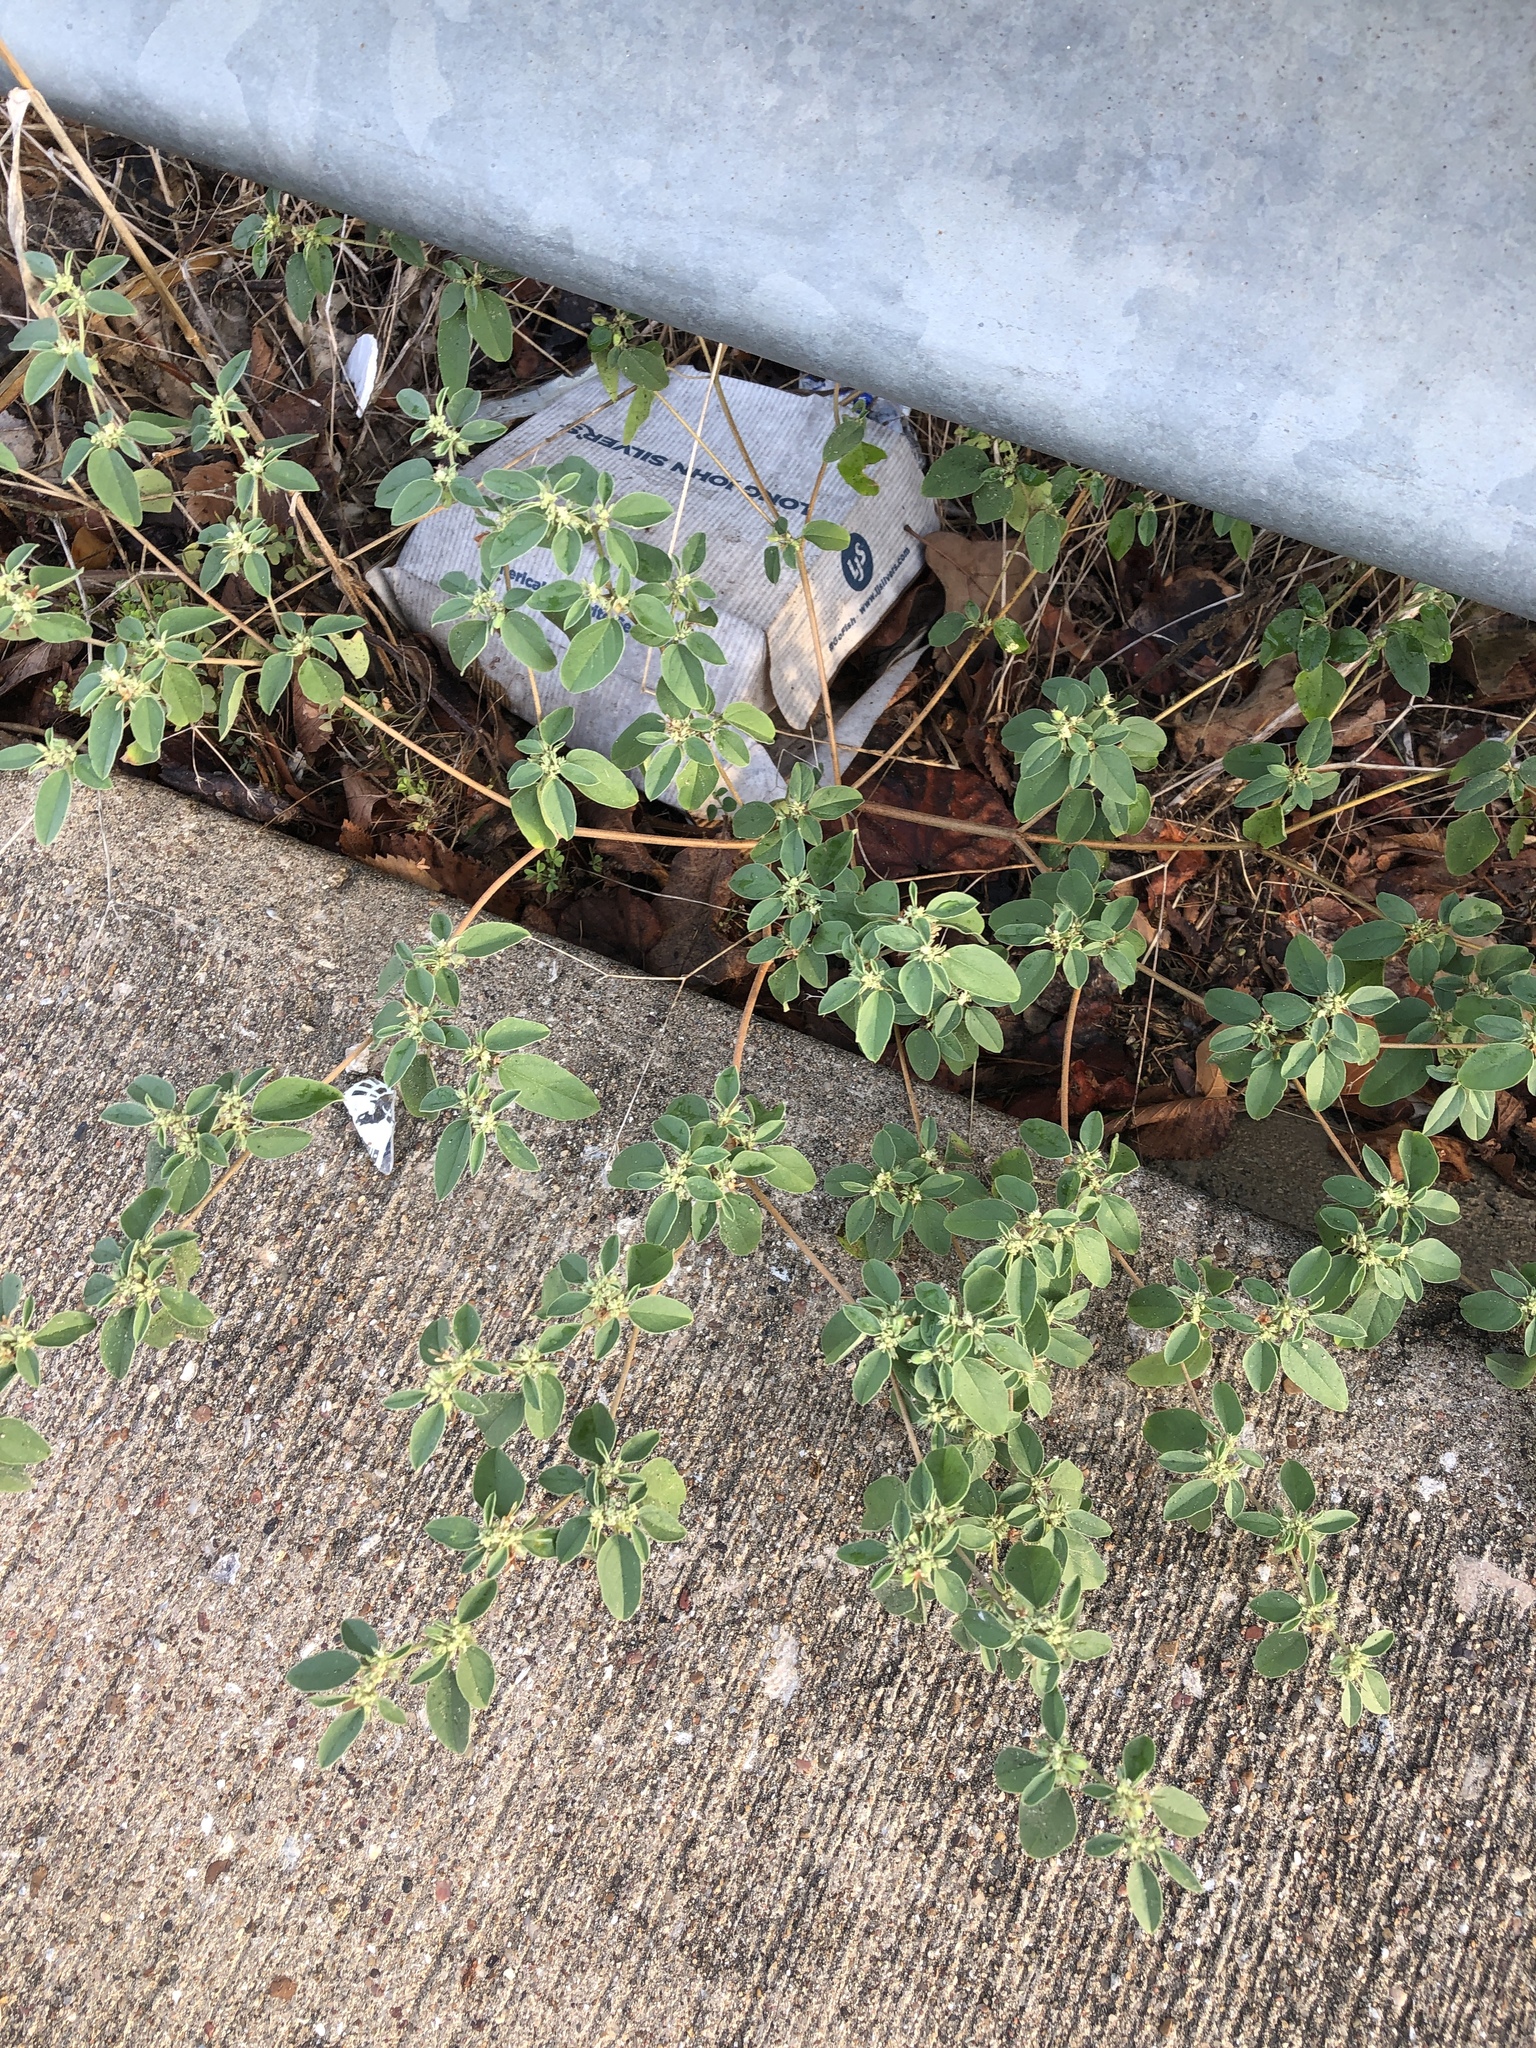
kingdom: Plantae
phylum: Tracheophyta
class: Magnoliopsida
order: Malpighiales
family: Euphorbiaceae
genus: Croton
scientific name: Croton monanthogynus
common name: One-seed croton
